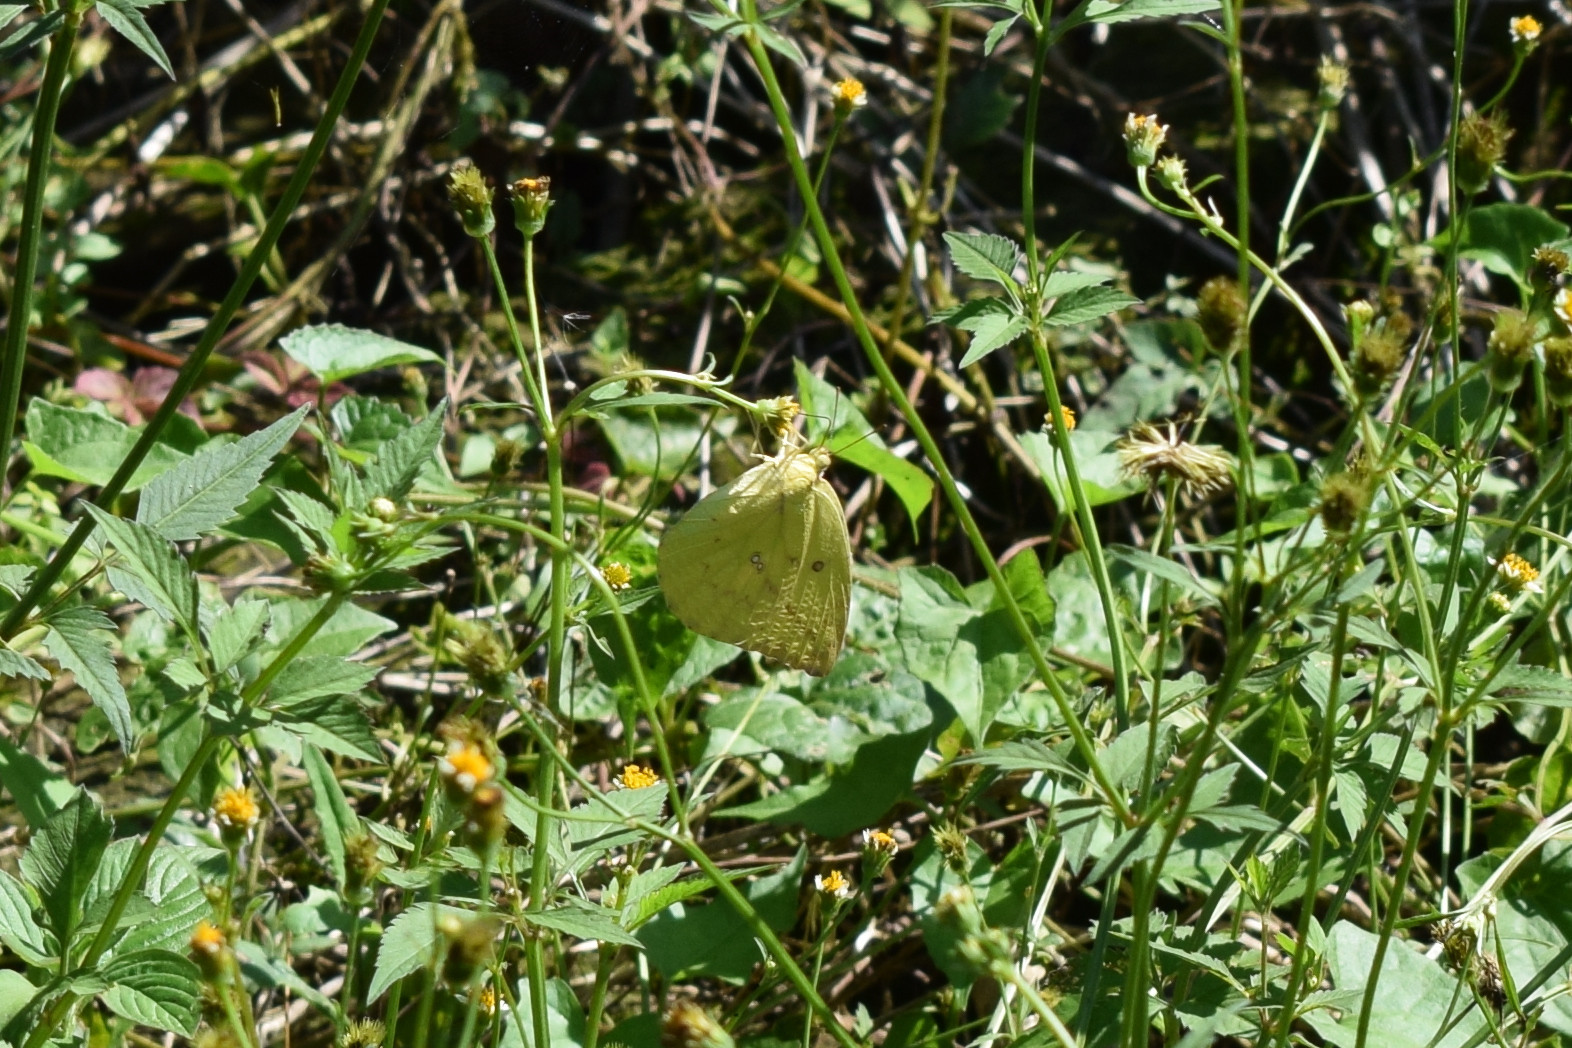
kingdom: Animalia
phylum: Arthropoda
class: Insecta
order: Lepidoptera
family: Pieridae
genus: Catopsilia
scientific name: Catopsilia pomona
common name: Common emigrant
